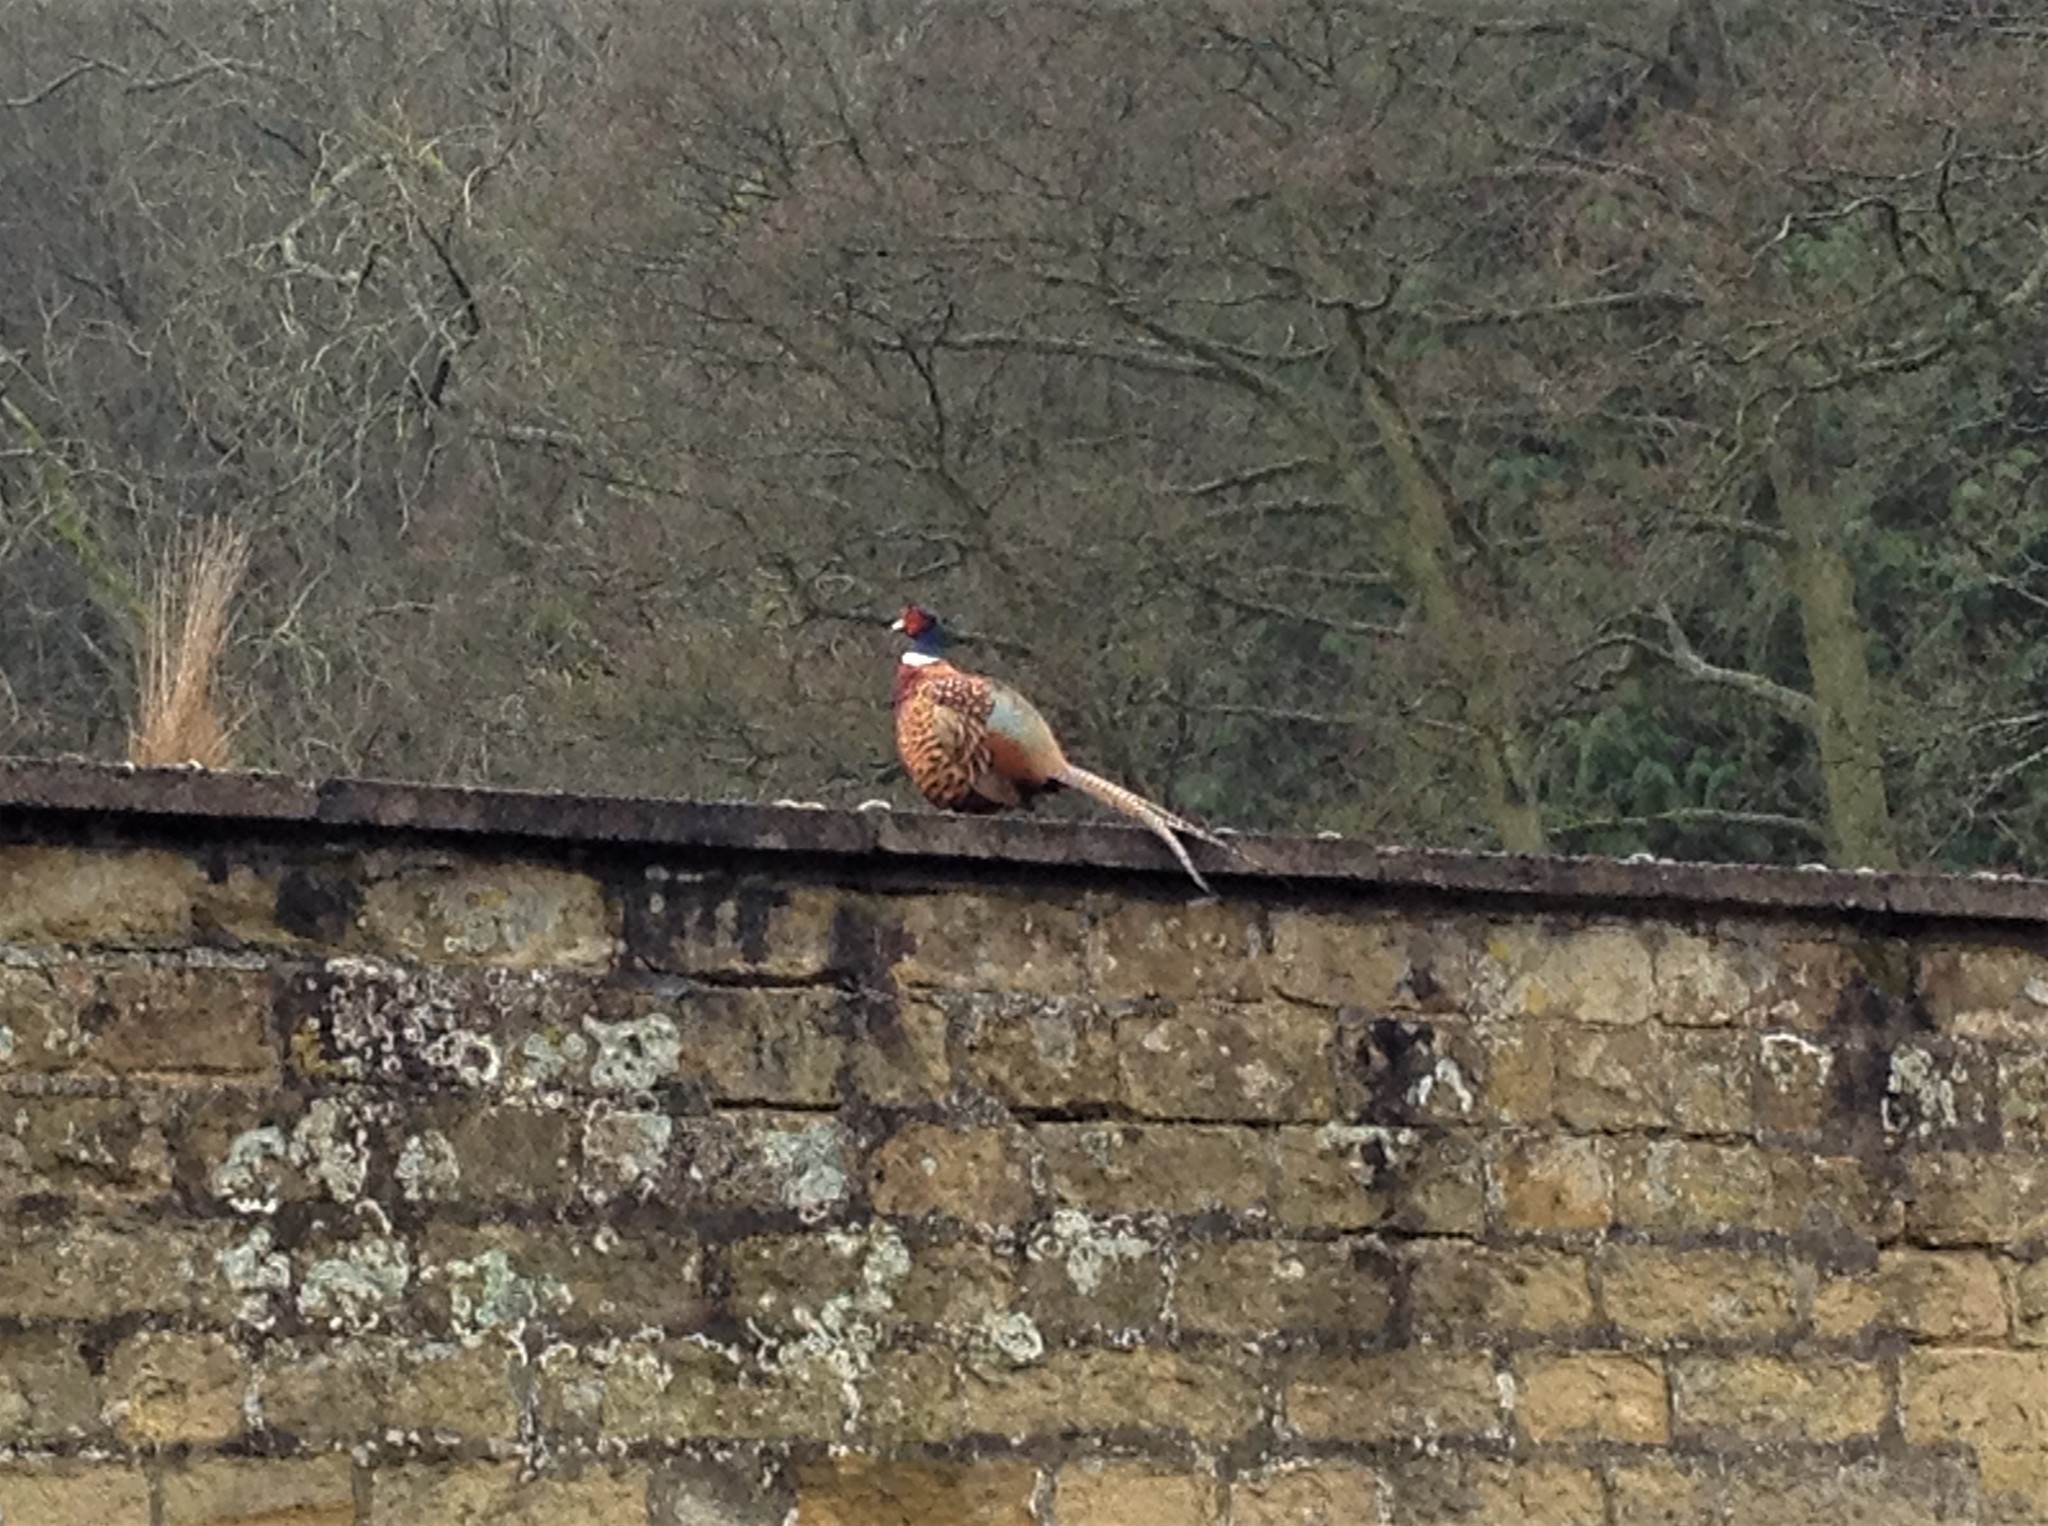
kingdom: Animalia
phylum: Chordata
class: Aves
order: Galliformes
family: Phasianidae
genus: Phasianus
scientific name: Phasianus colchicus
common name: Common pheasant
